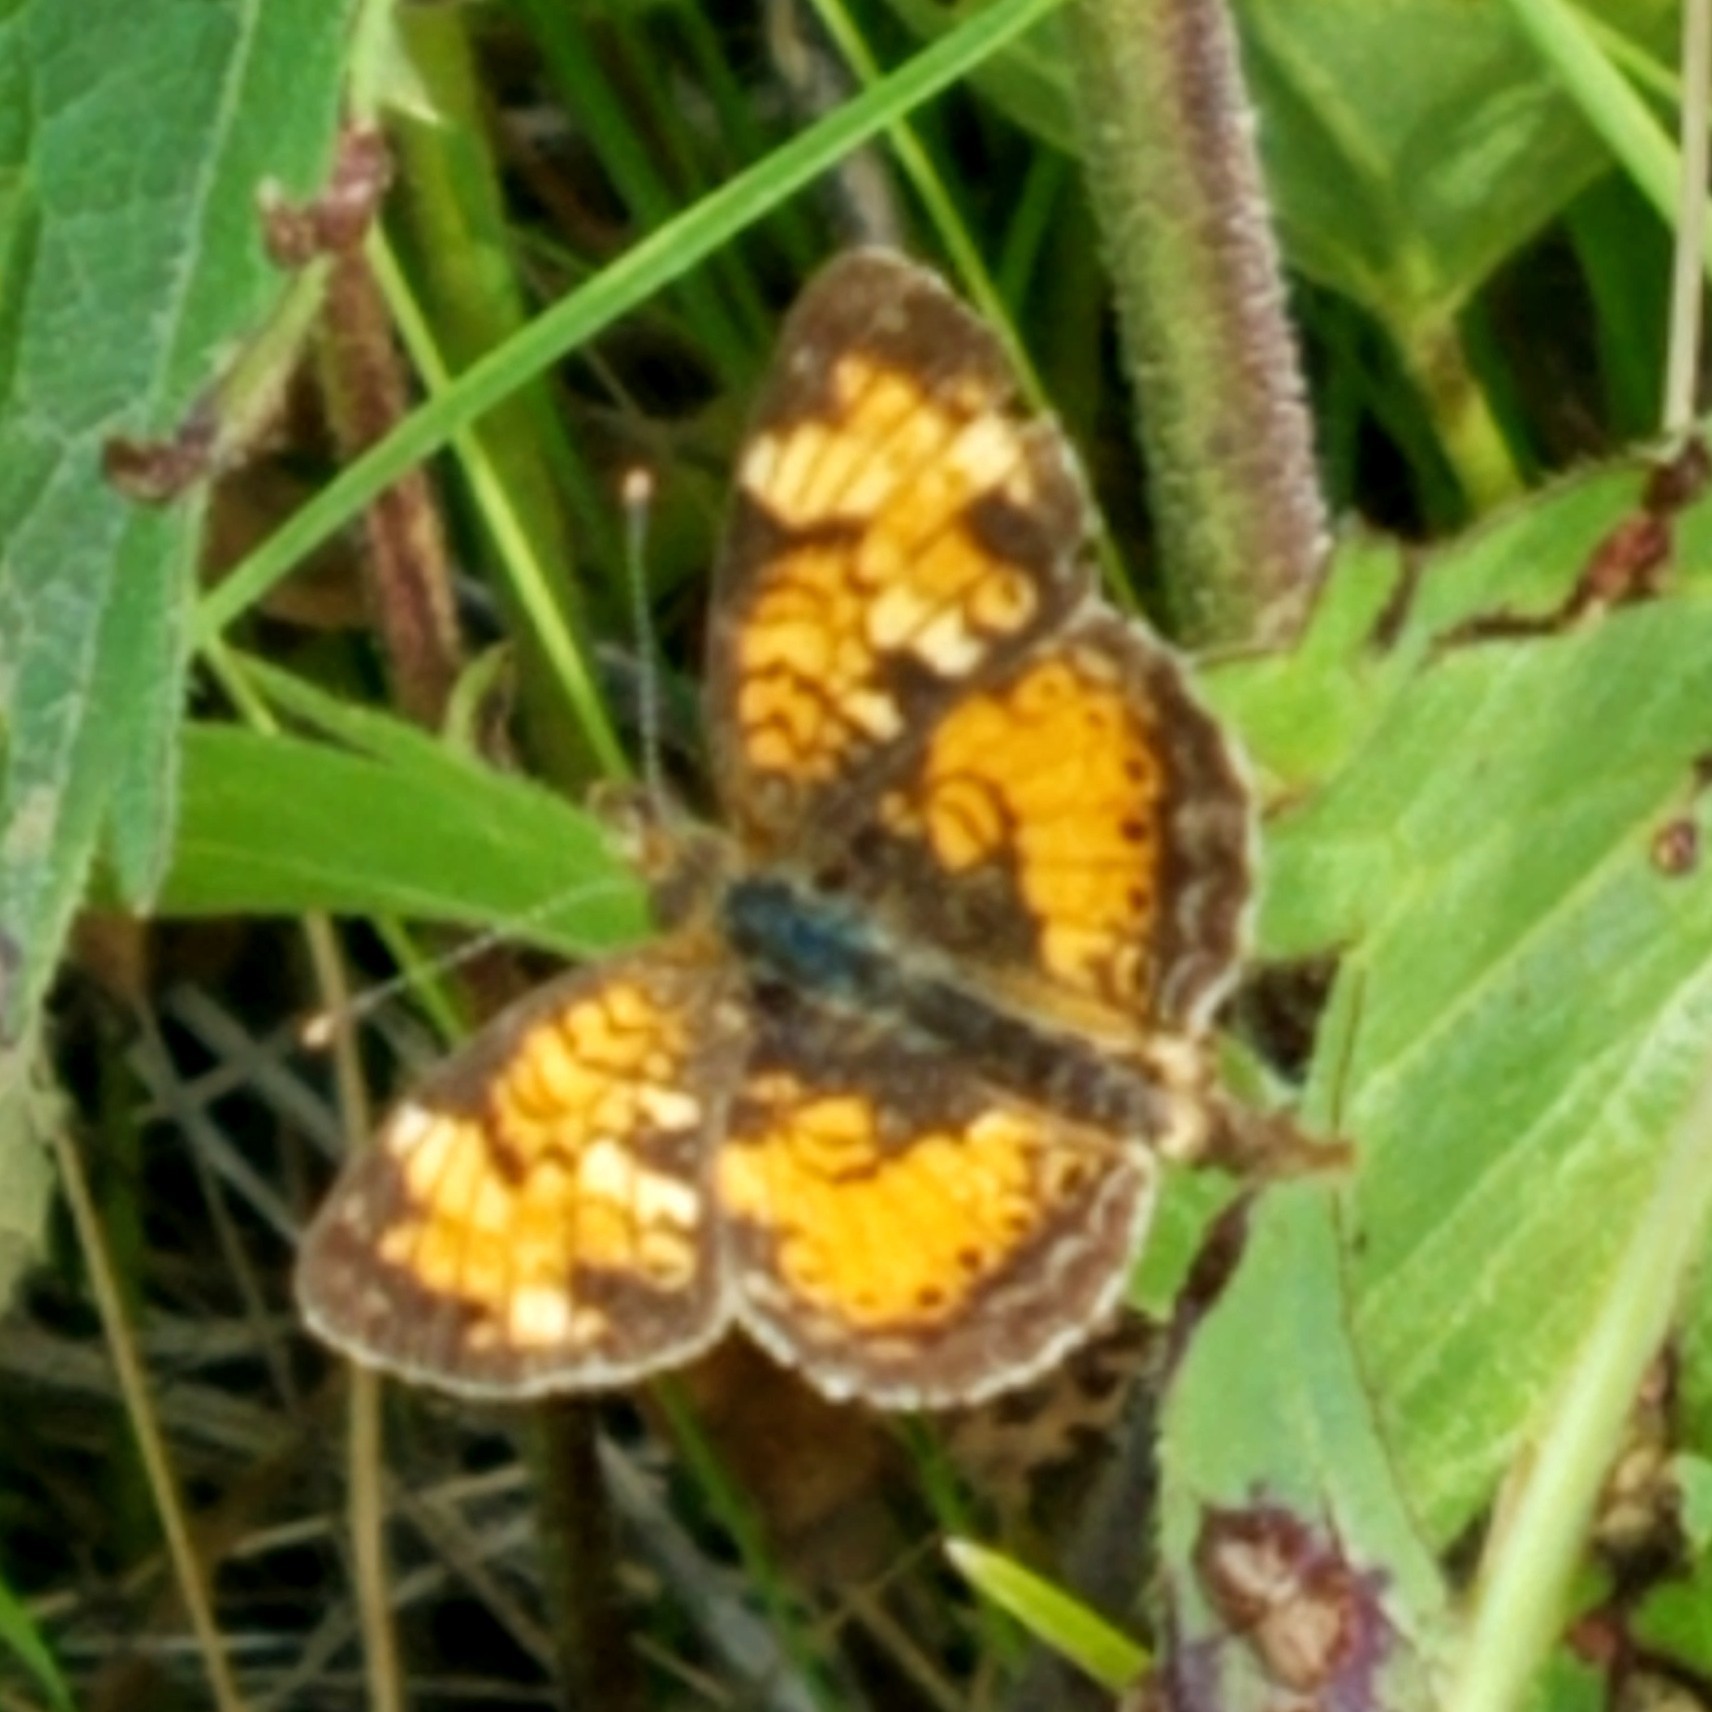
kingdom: Animalia
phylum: Arthropoda
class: Insecta
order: Lepidoptera
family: Nymphalidae
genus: Phyciodes
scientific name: Phyciodes tharos
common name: Pearl crescent
